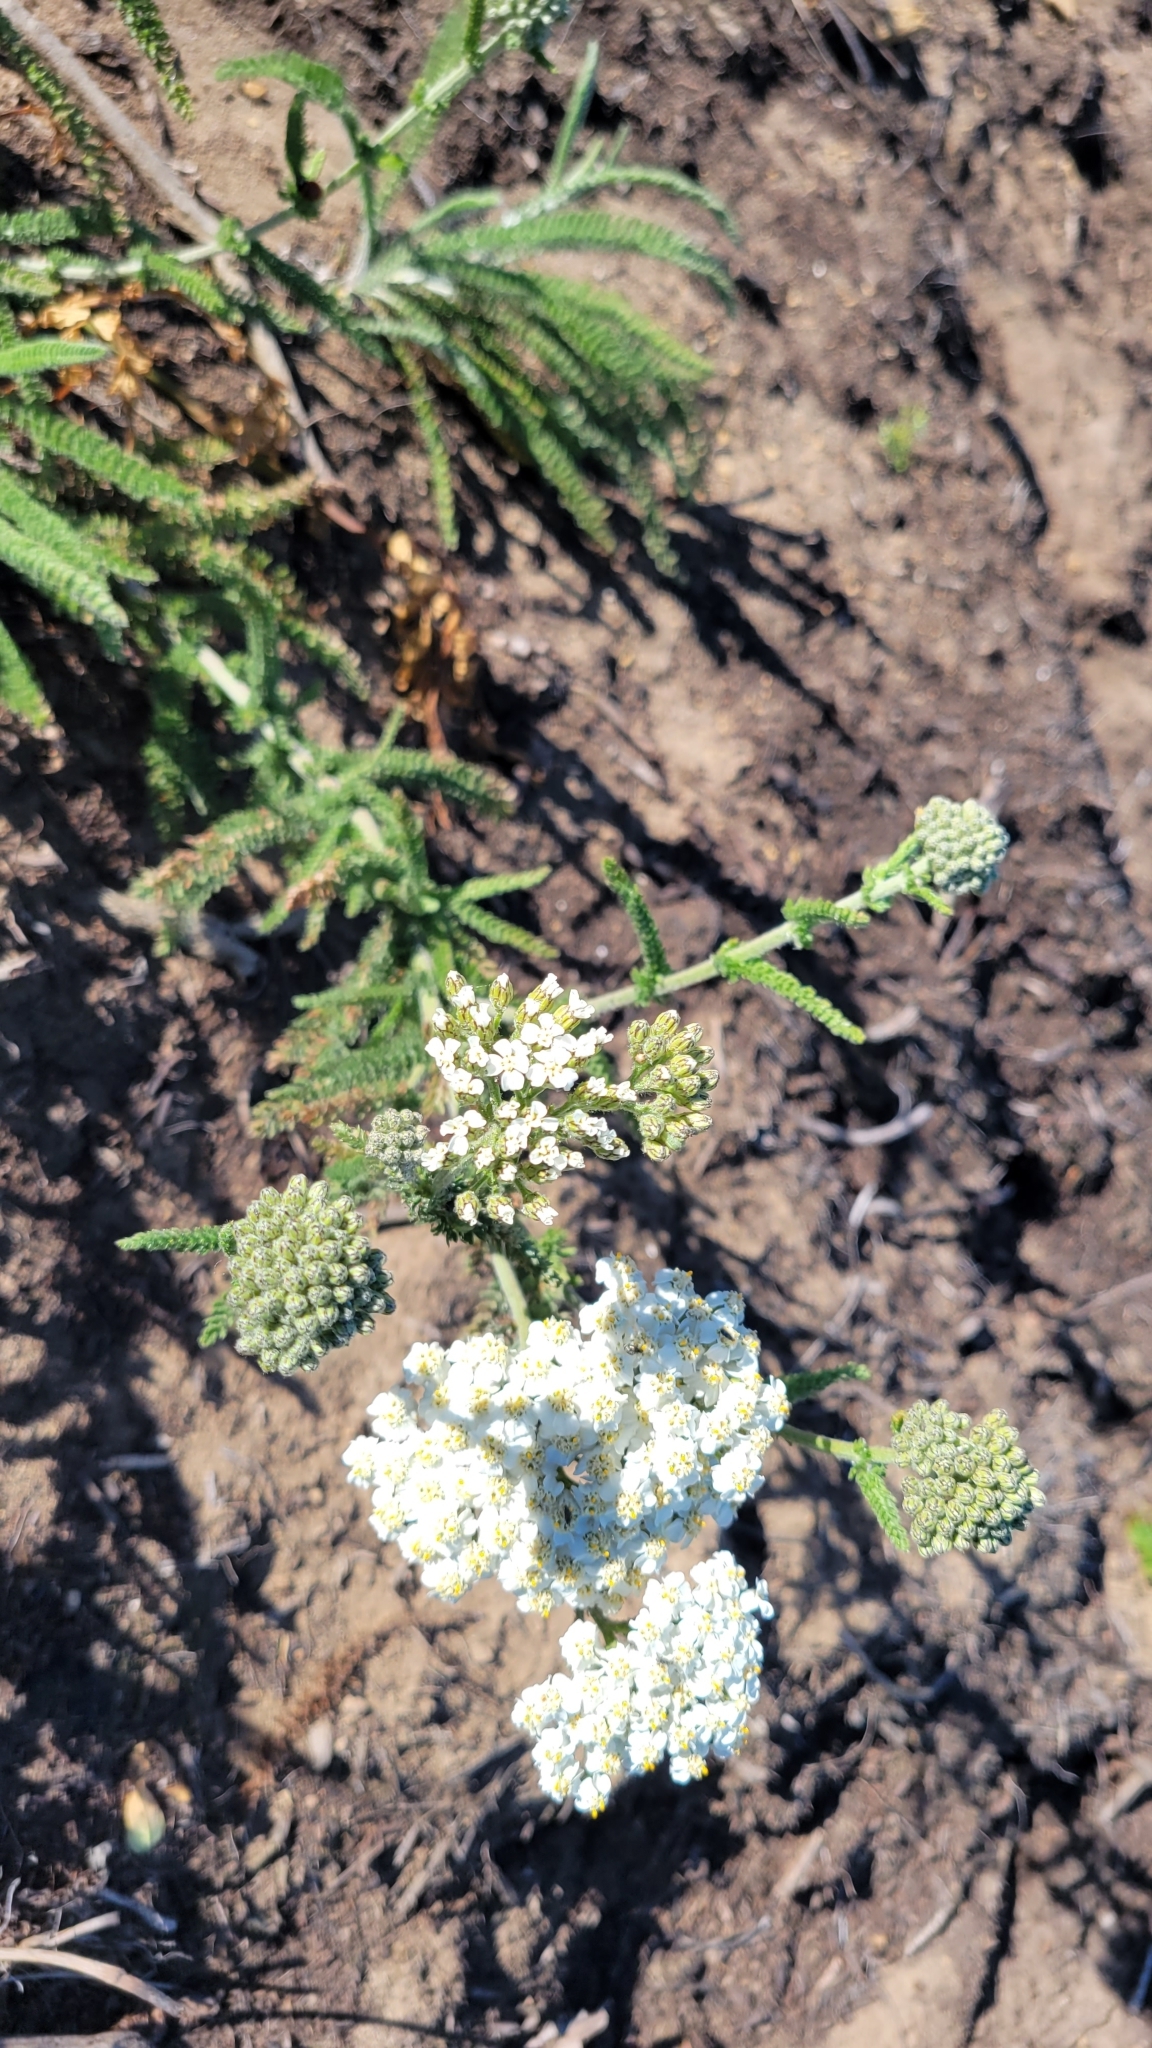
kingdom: Plantae
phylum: Tracheophyta
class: Magnoliopsida
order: Asterales
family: Asteraceae
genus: Achillea
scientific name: Achillea millefolium
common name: Yarrow
